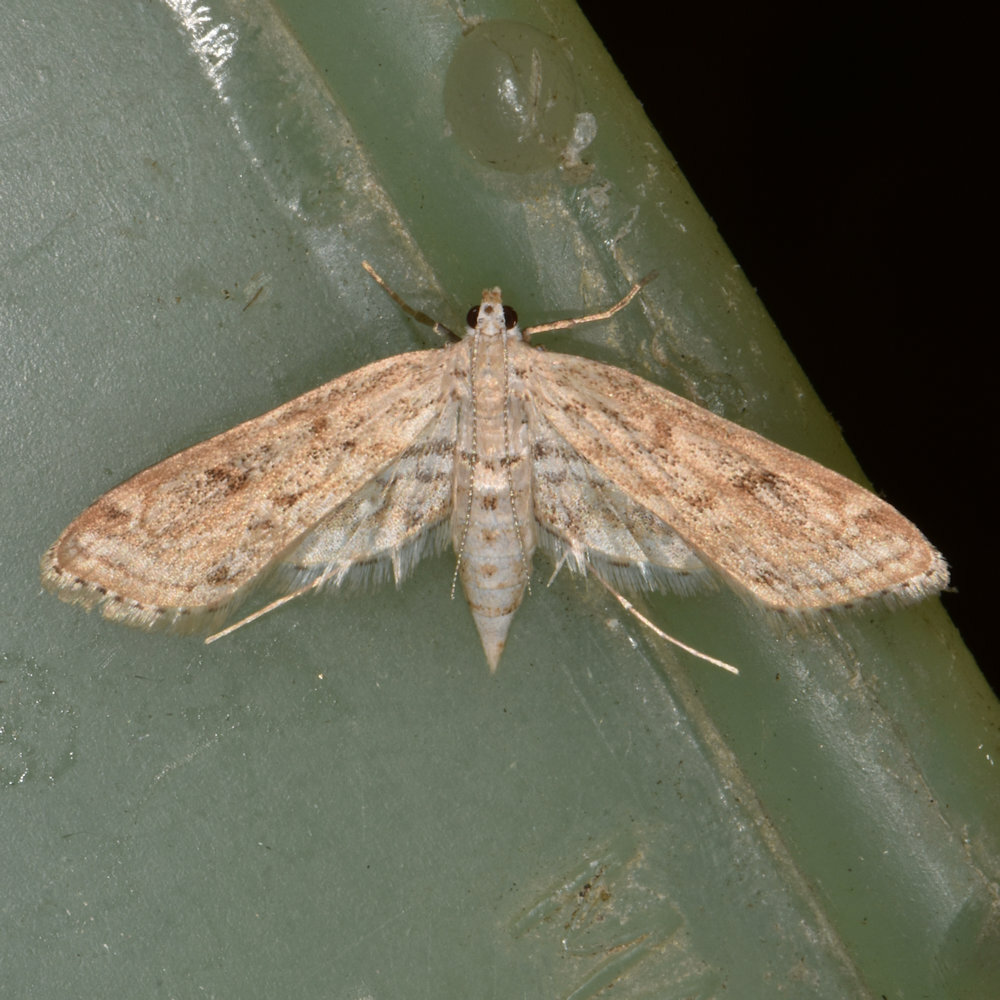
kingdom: Animalia
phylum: Arthropoda
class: Insecta
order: Lepidoptera
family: Crambidae
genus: Parapoynx
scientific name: Parapoynx allionealis
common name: Bladderwort casemaker
